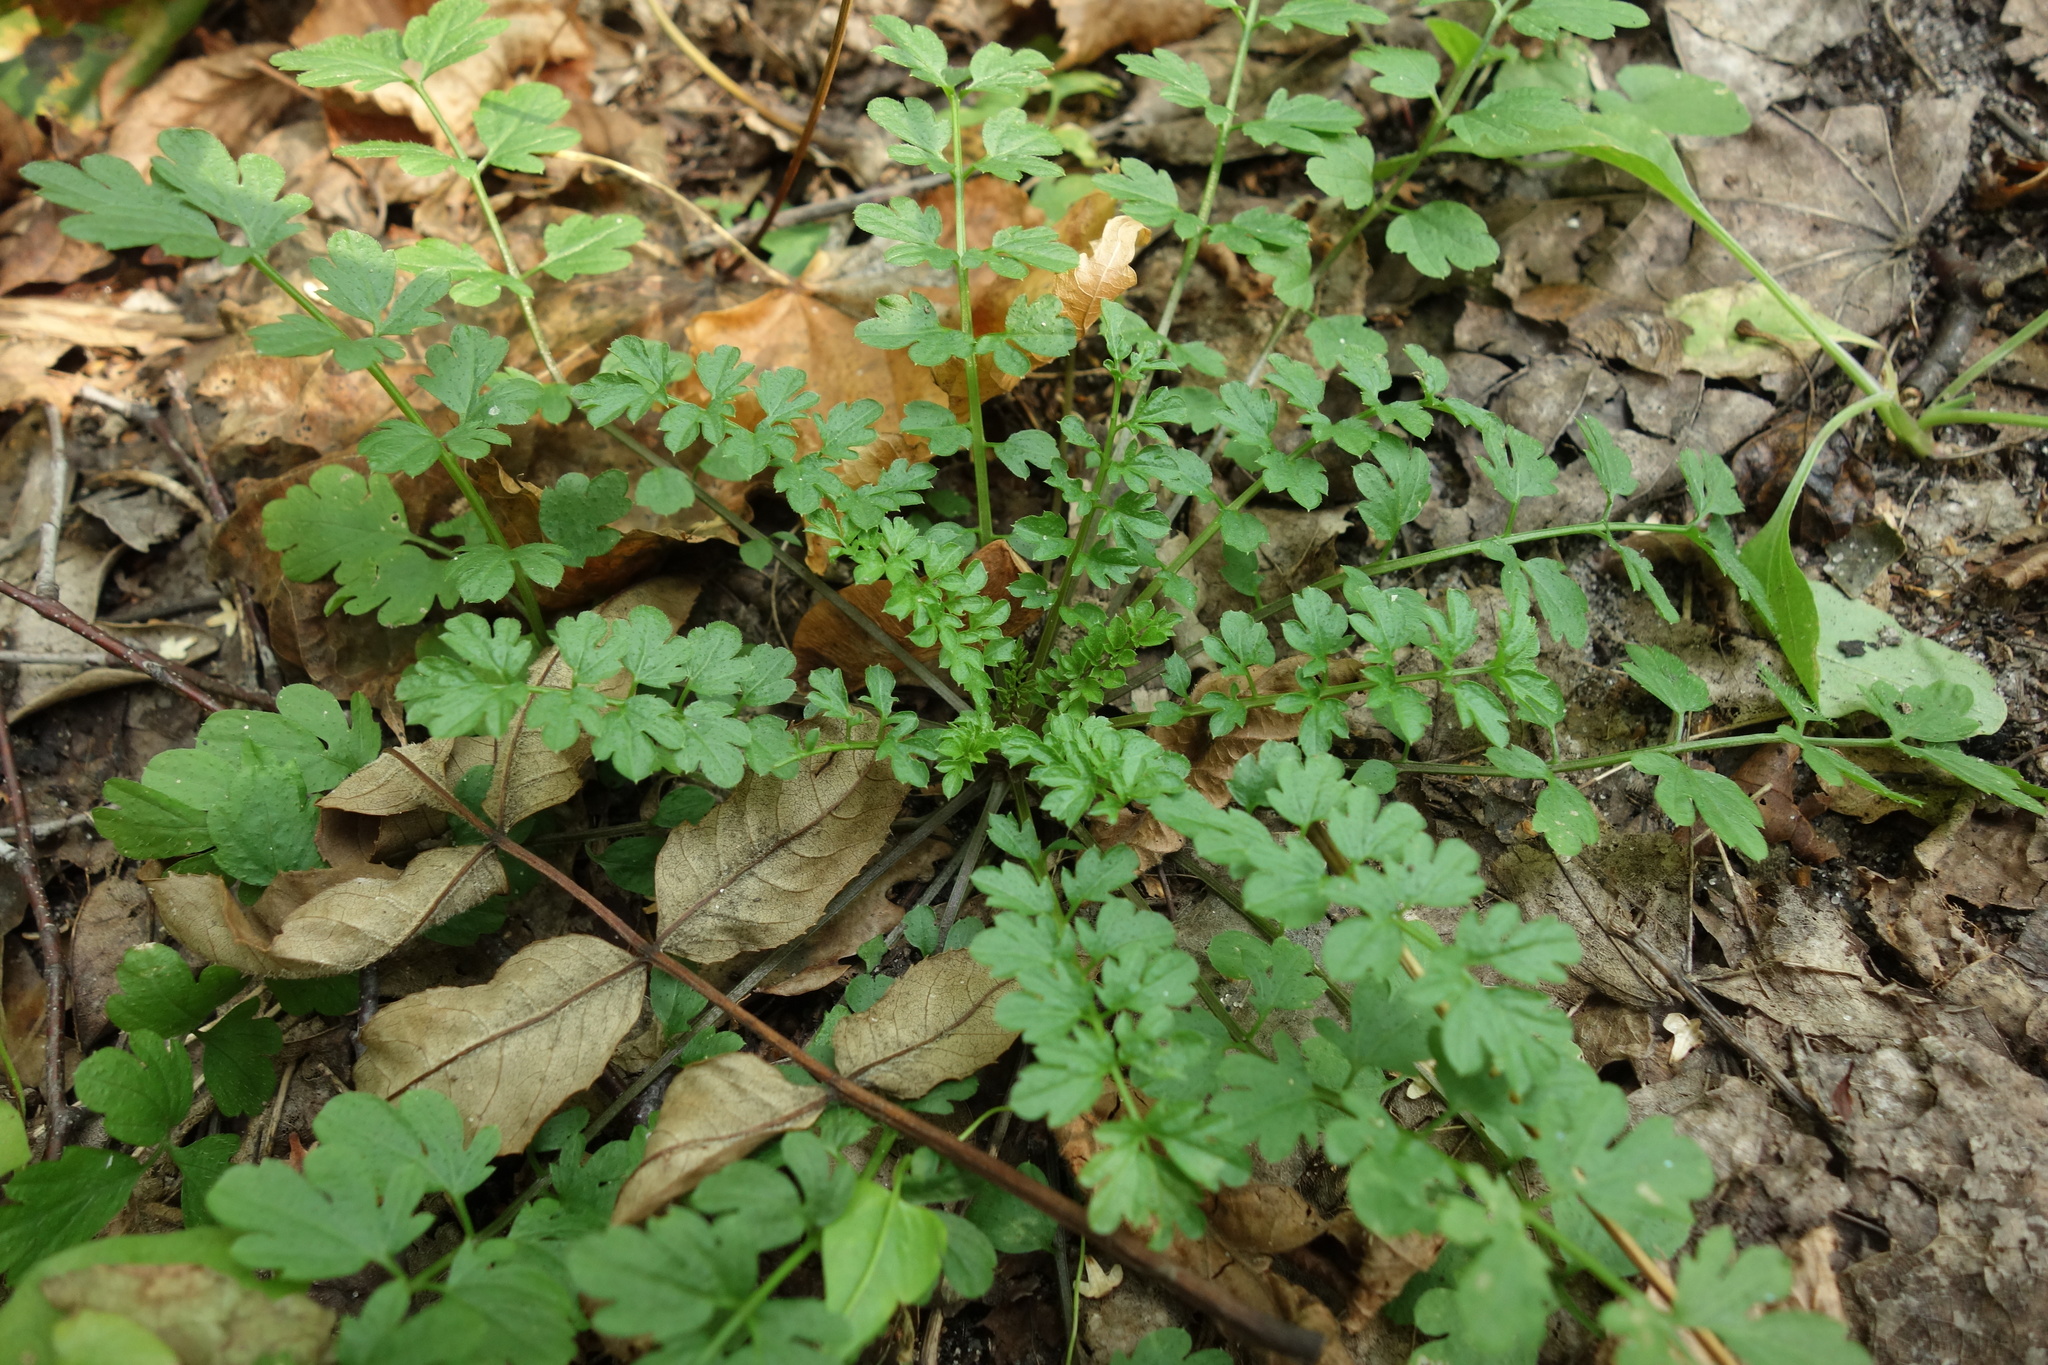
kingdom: Plantae
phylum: Tracheophyta
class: Magnoliopsida
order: Brassicales
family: Brassicaceae
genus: Cardamine
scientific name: Cardamine impatiens
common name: Narrow-leaved bitter-cress
